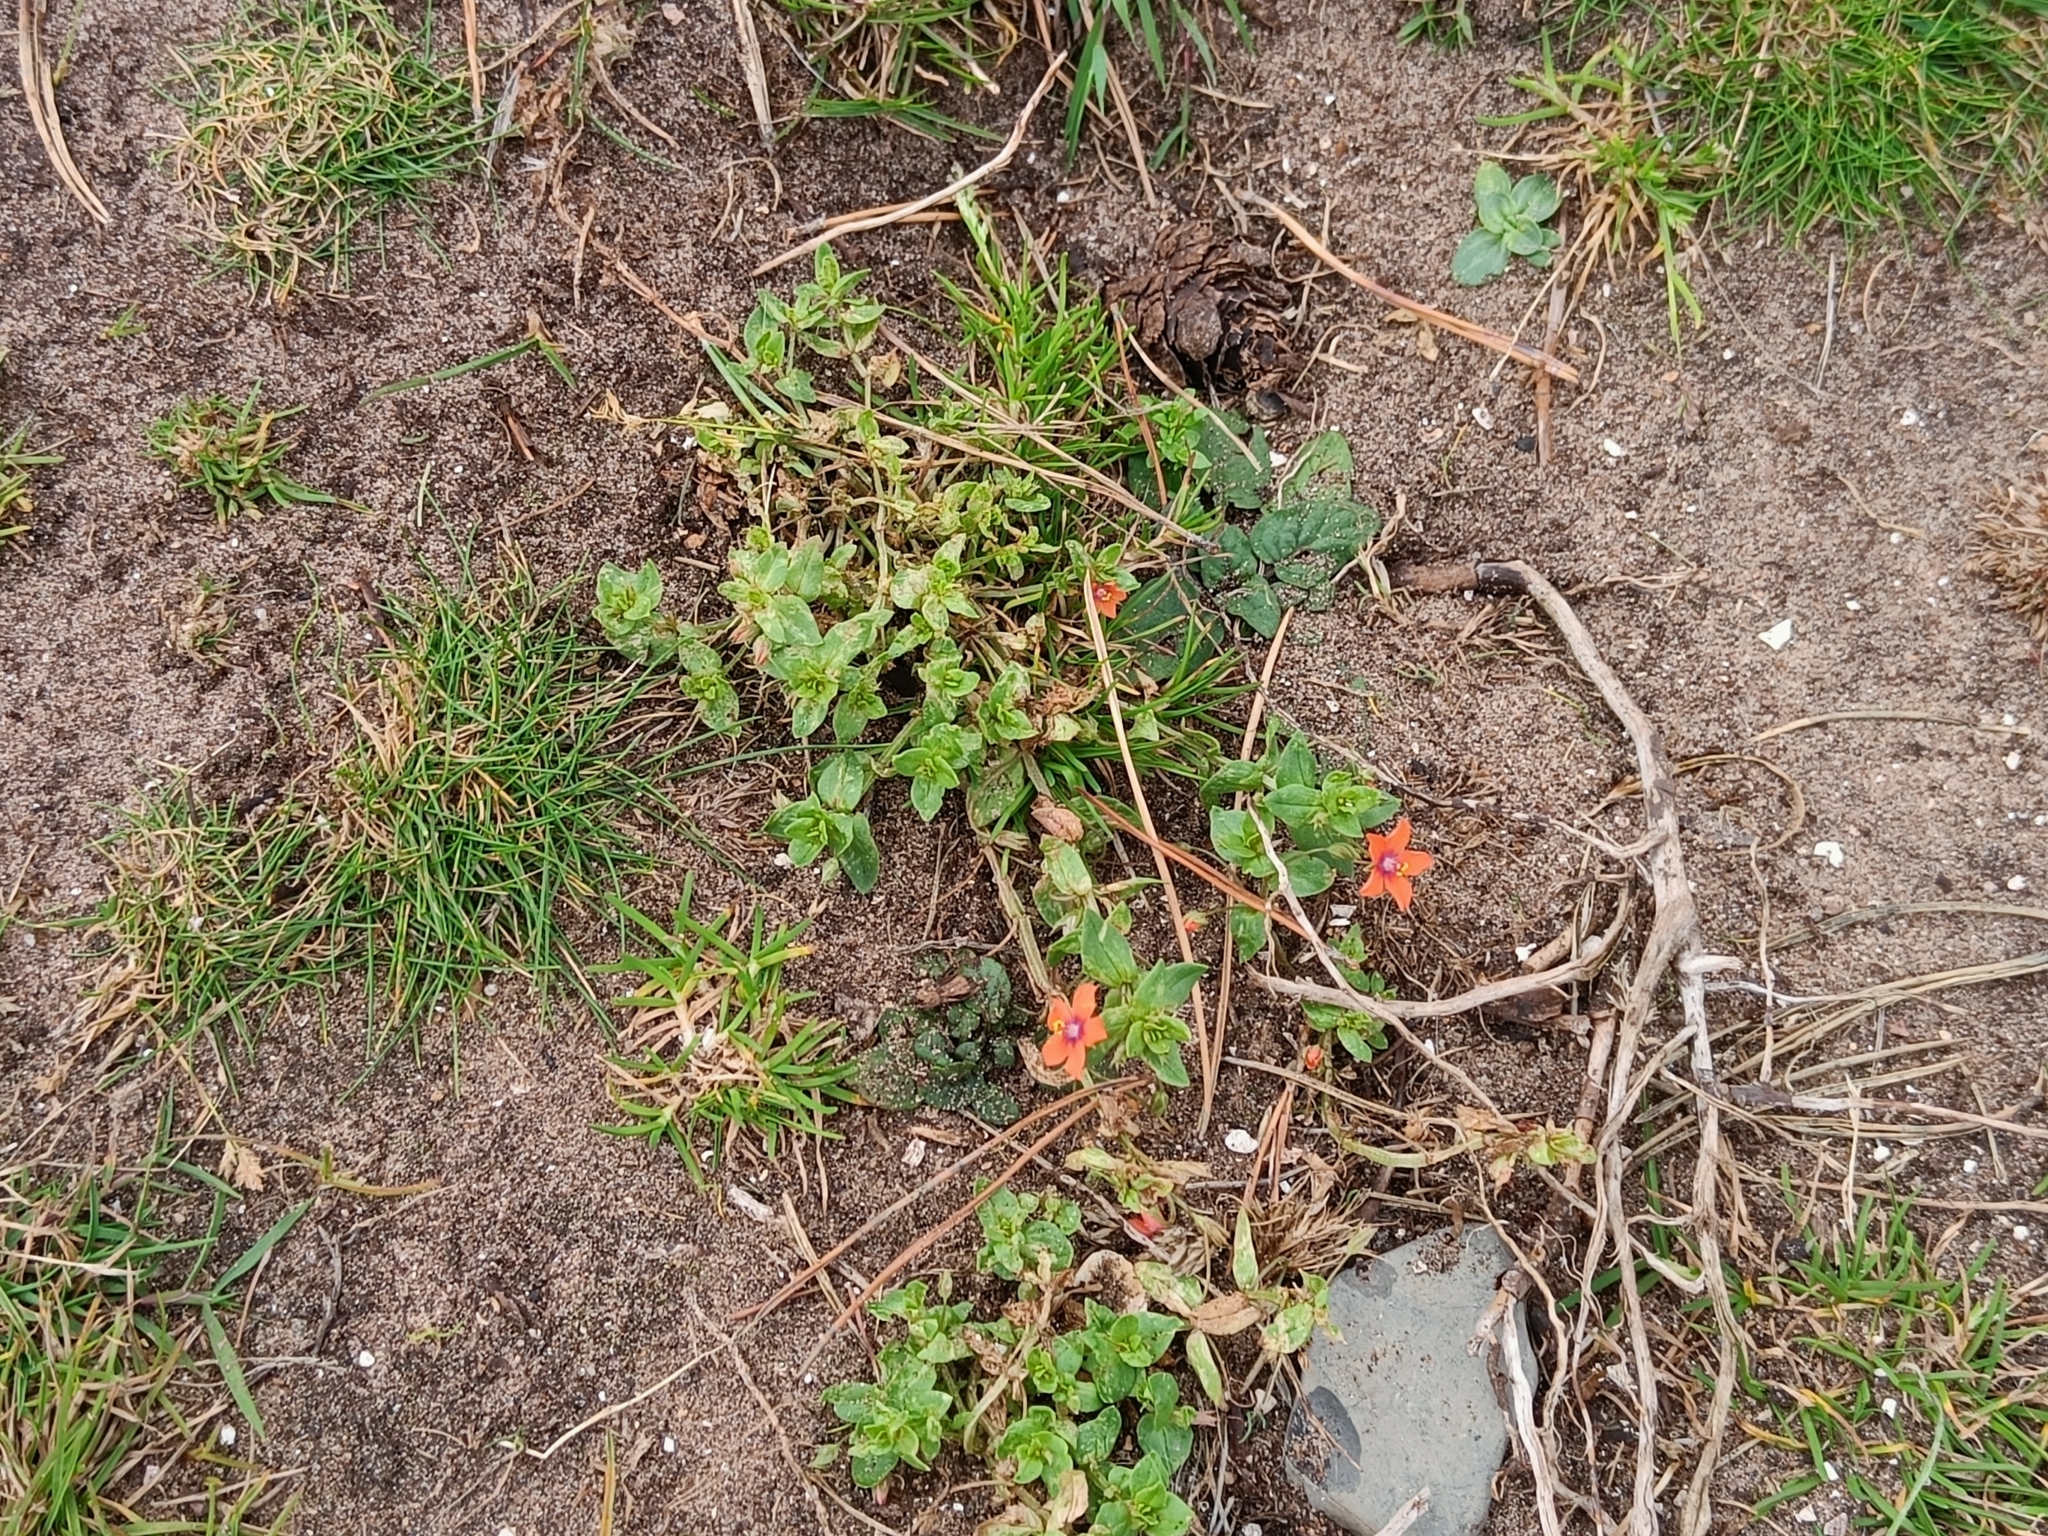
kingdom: Plantae
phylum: Tracheophyta
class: Magnoliopsida
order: Ericales
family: Primulaceae
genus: Lysimachia
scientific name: Lysimachia arvensis
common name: Scarlet pimpernel
